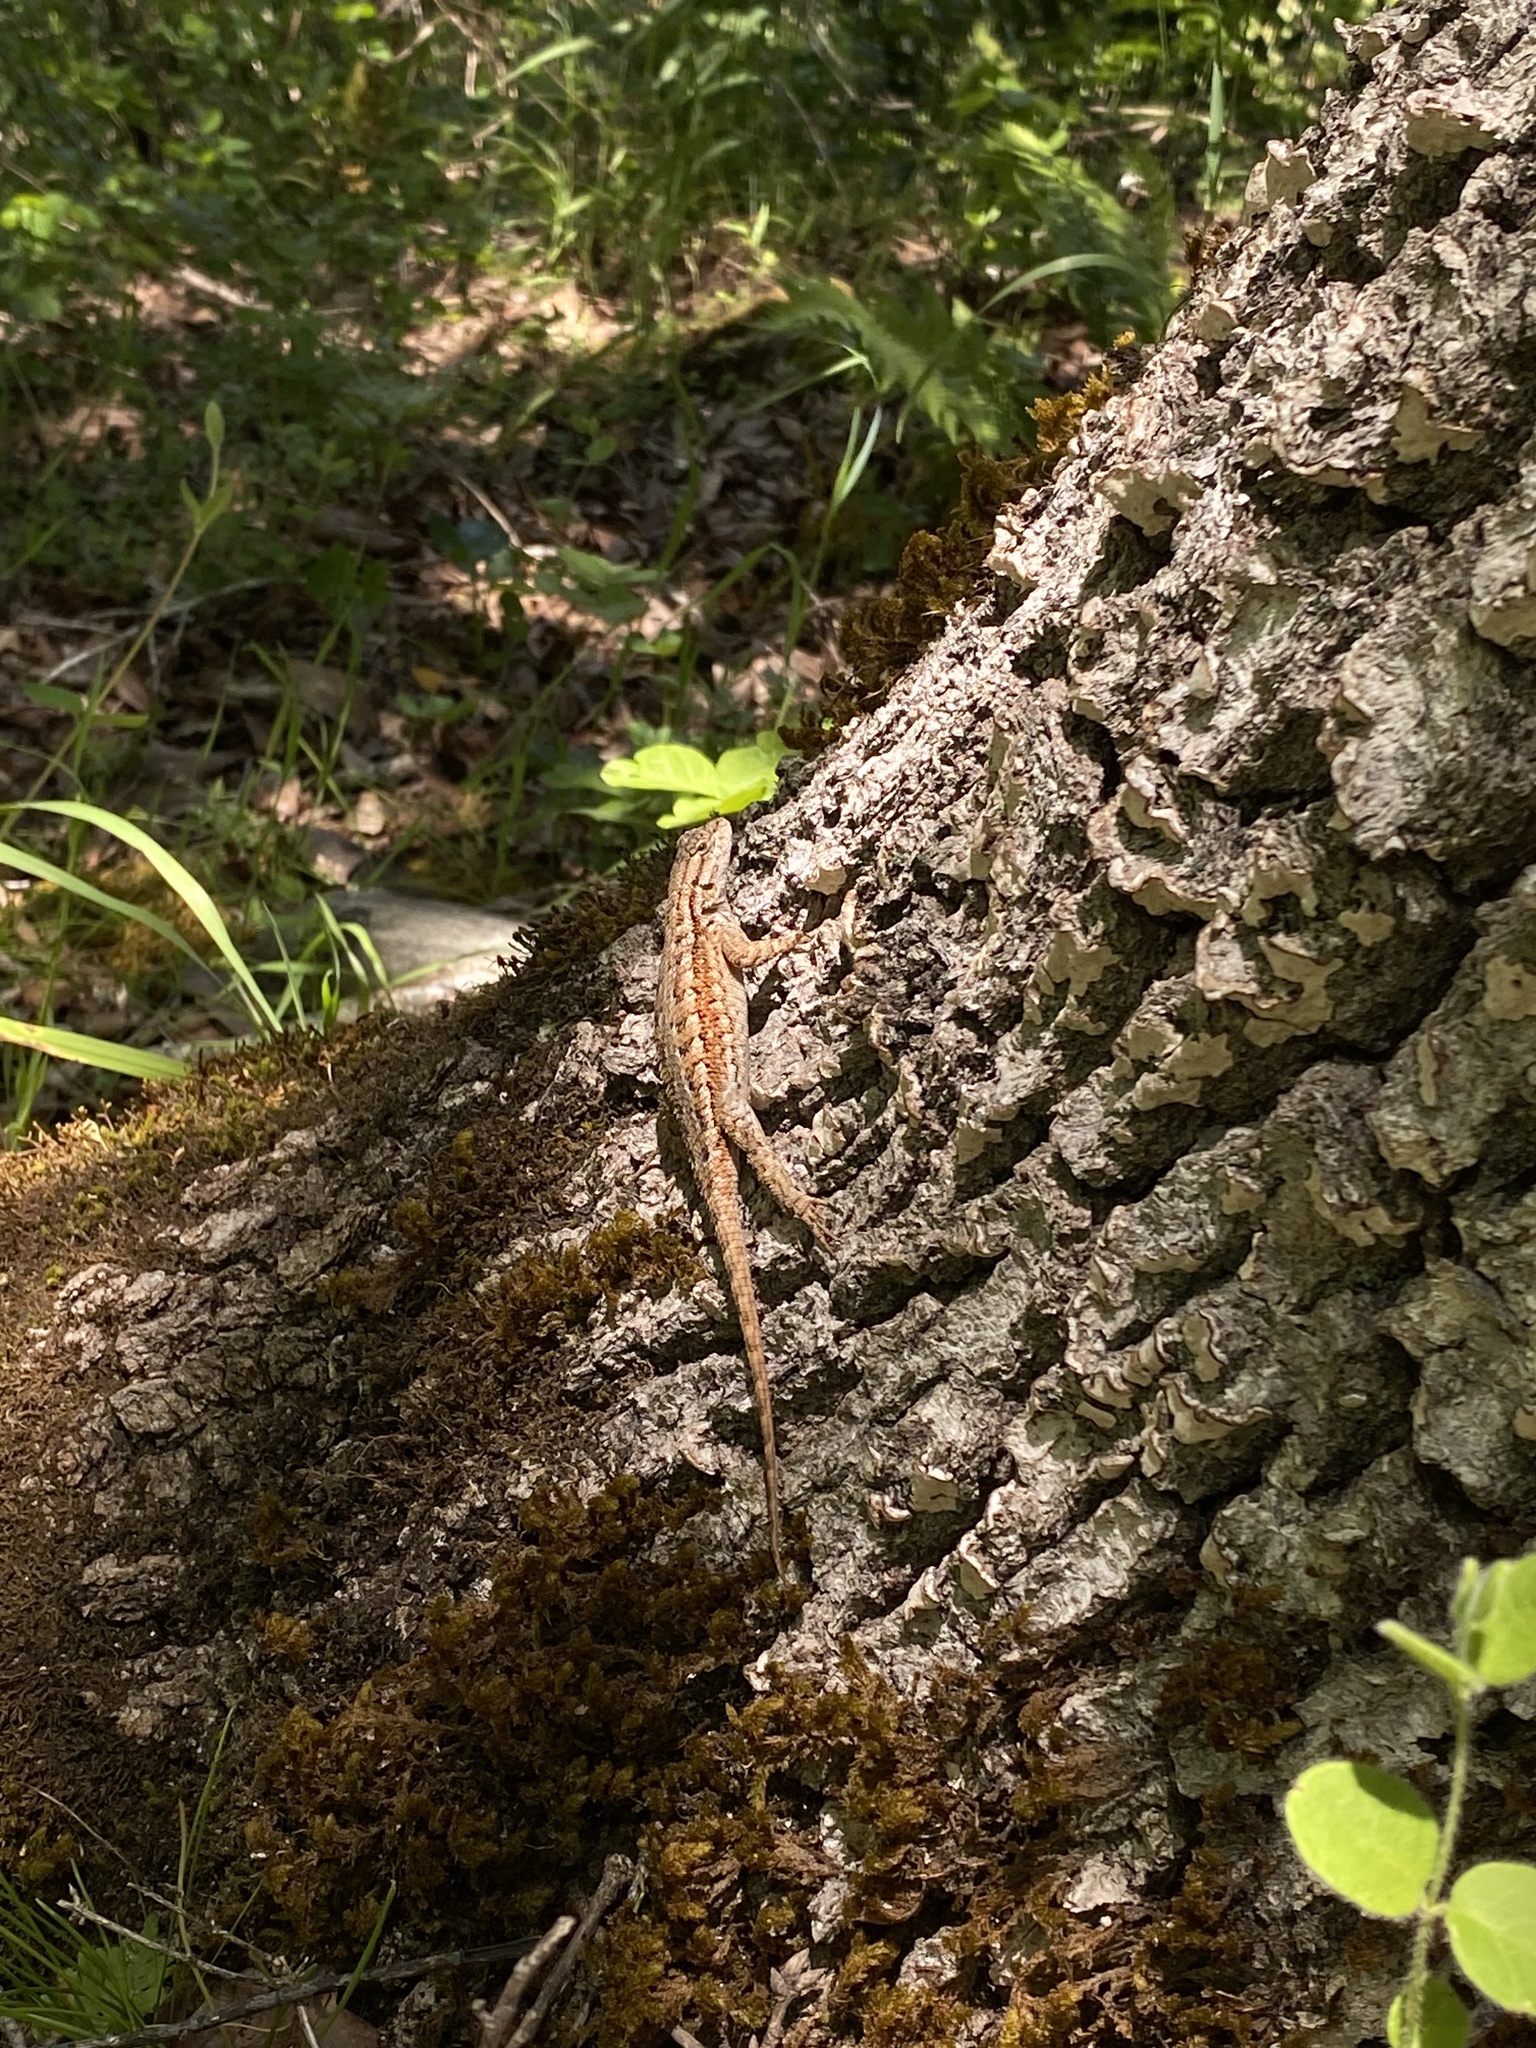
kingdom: Animalia
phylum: Chordata
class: Squamata
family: Phrynosomatidae
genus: Sceloporus
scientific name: Sceloporus graciosus
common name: Sagebrush lizard
